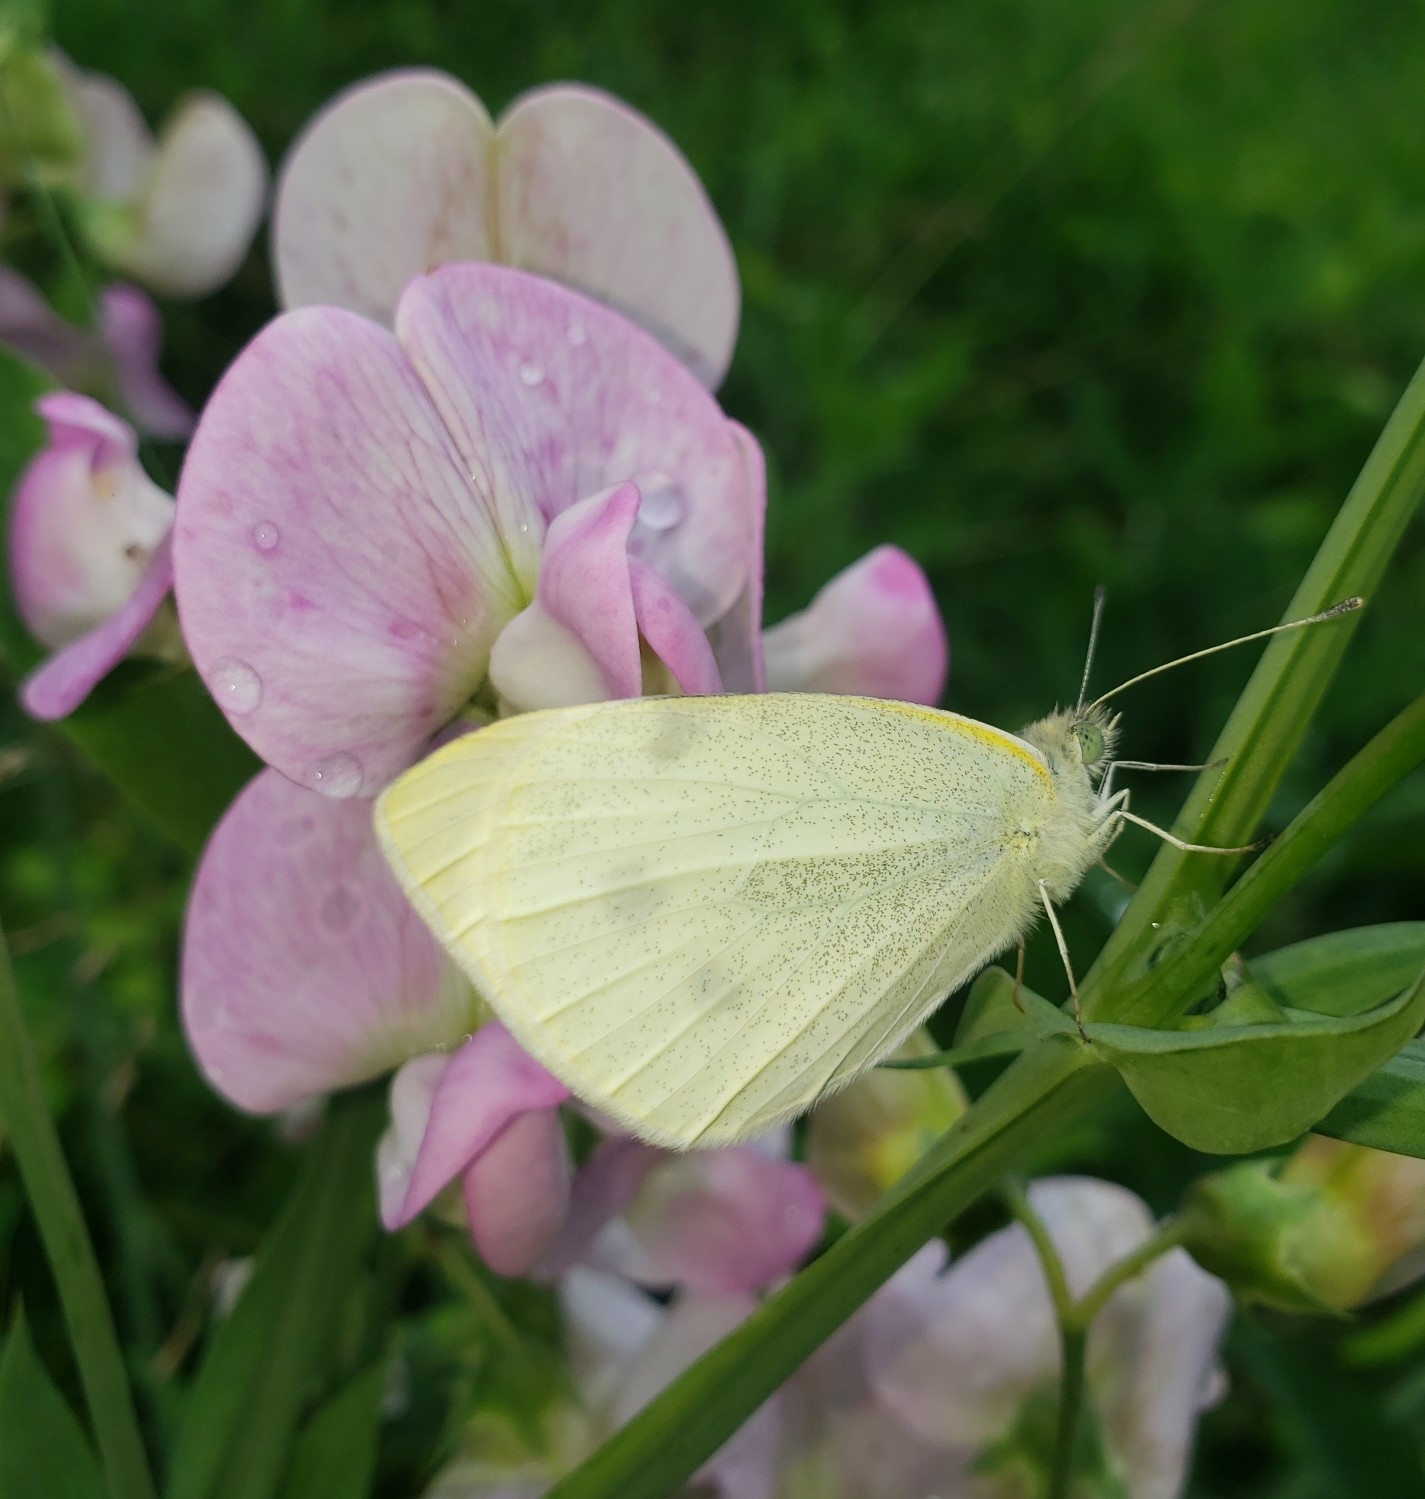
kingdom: Animalia
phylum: Arthropoda
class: Insecta
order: Lepidoptera
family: Pieridae
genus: Pieris
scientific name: Pieris rapae
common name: Small white
